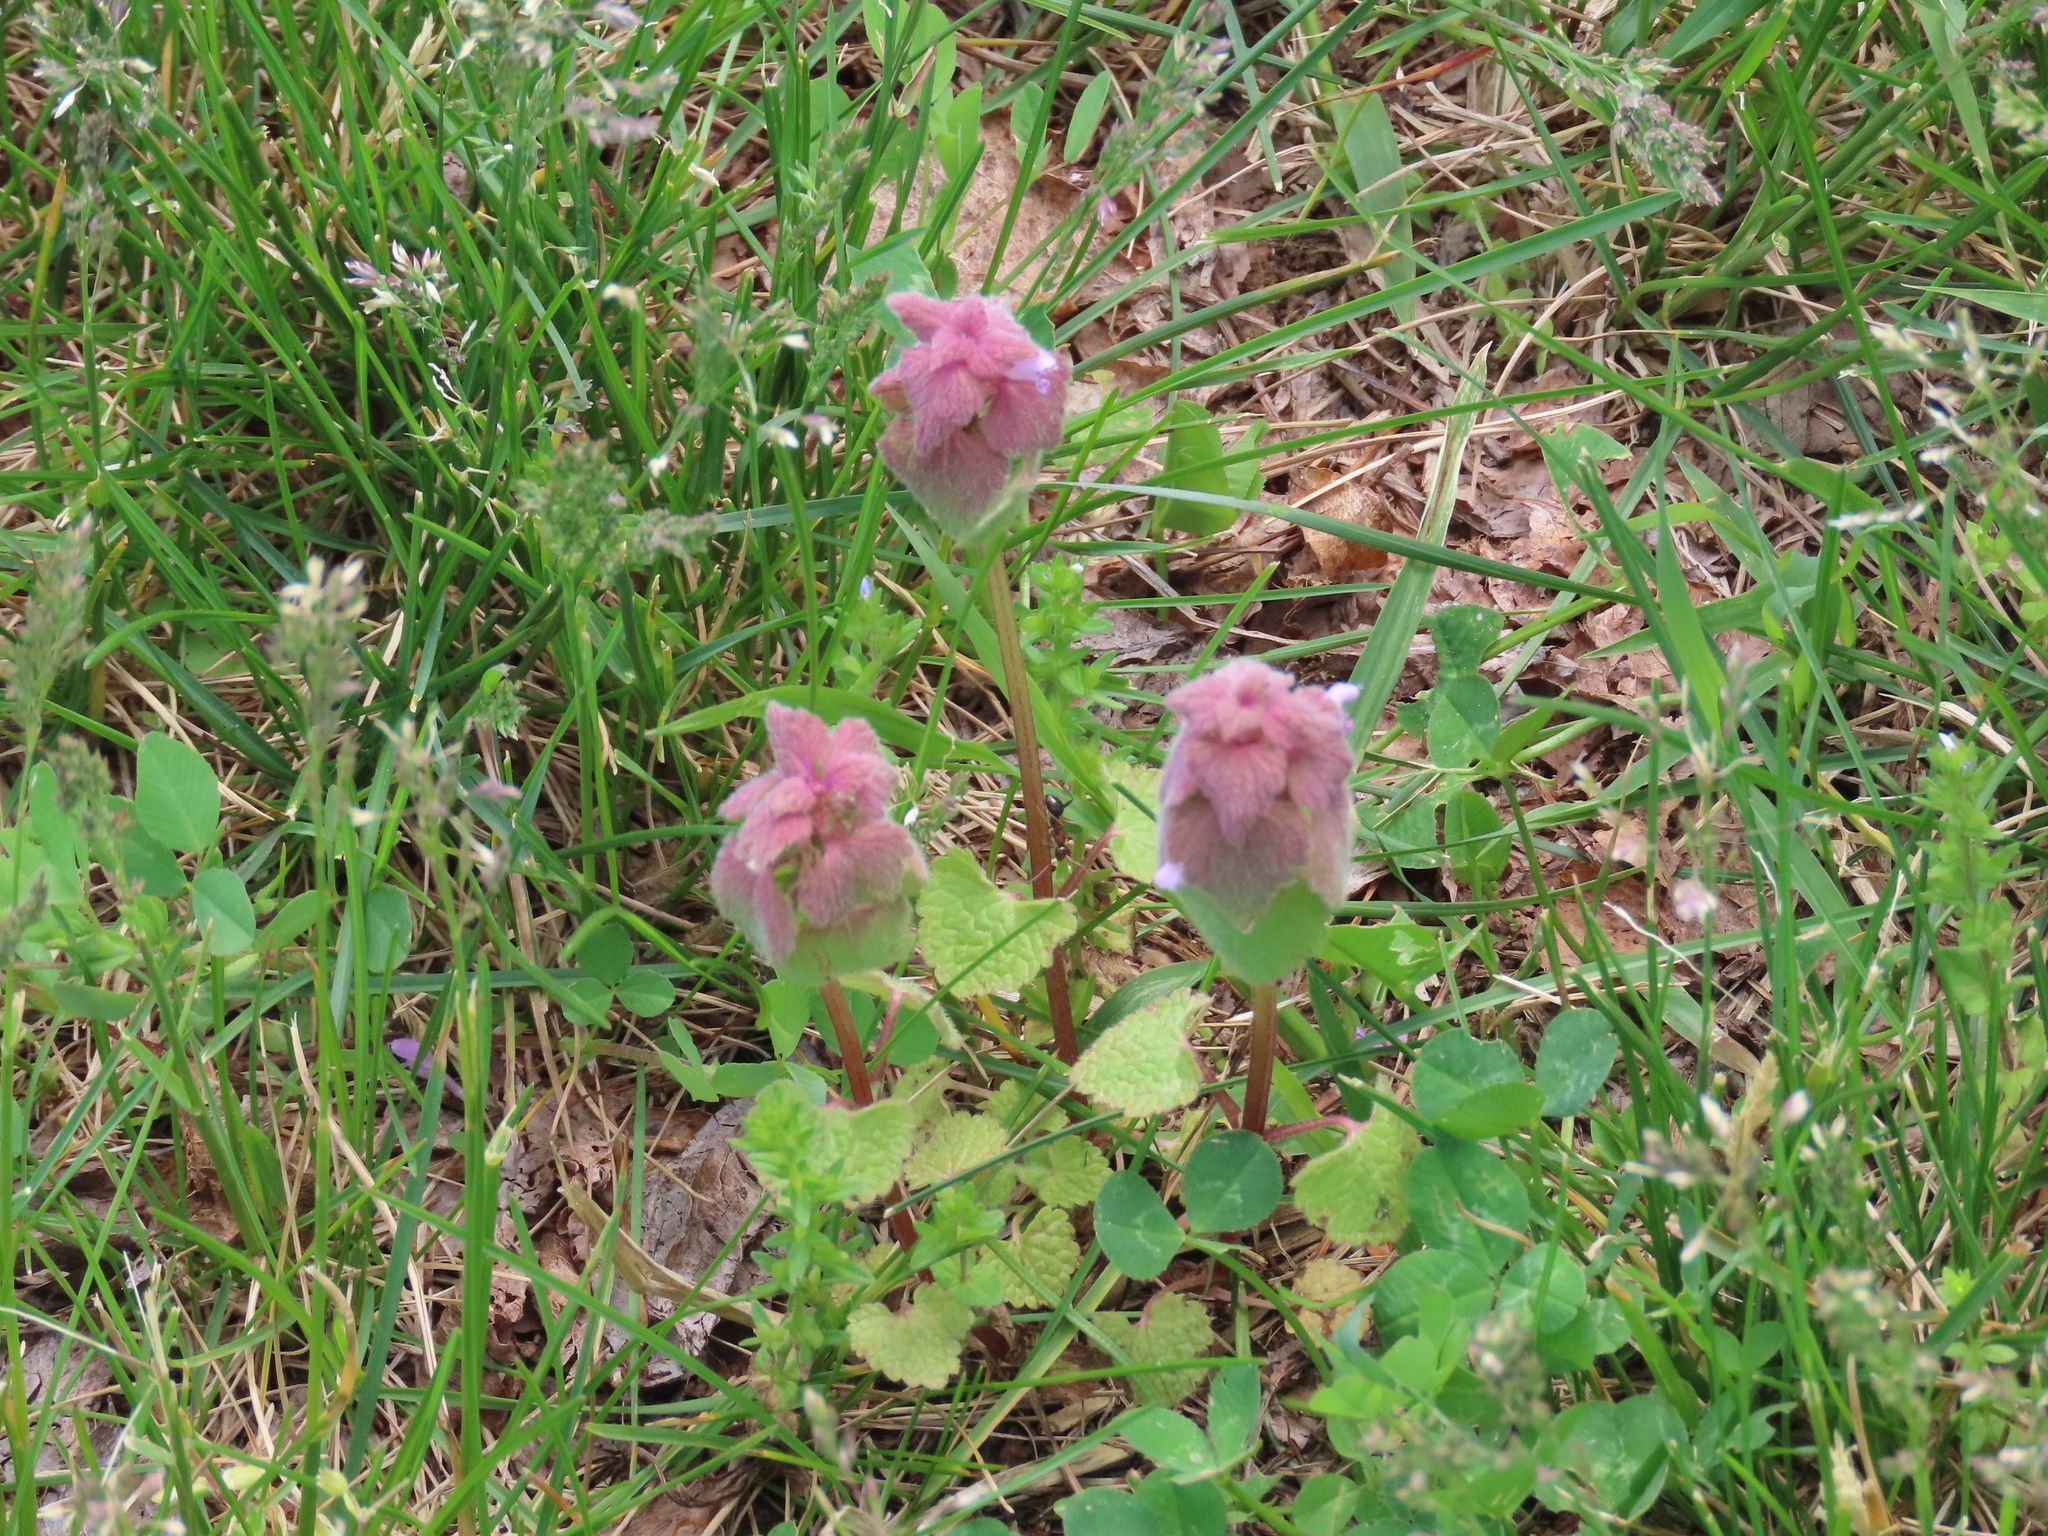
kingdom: Plantae
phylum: Tracheophyta
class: Magnoliopsida
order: Lamiales
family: Lamiaceae
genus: Lamium
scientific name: Lamium purpureum
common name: Red dead-nettle
